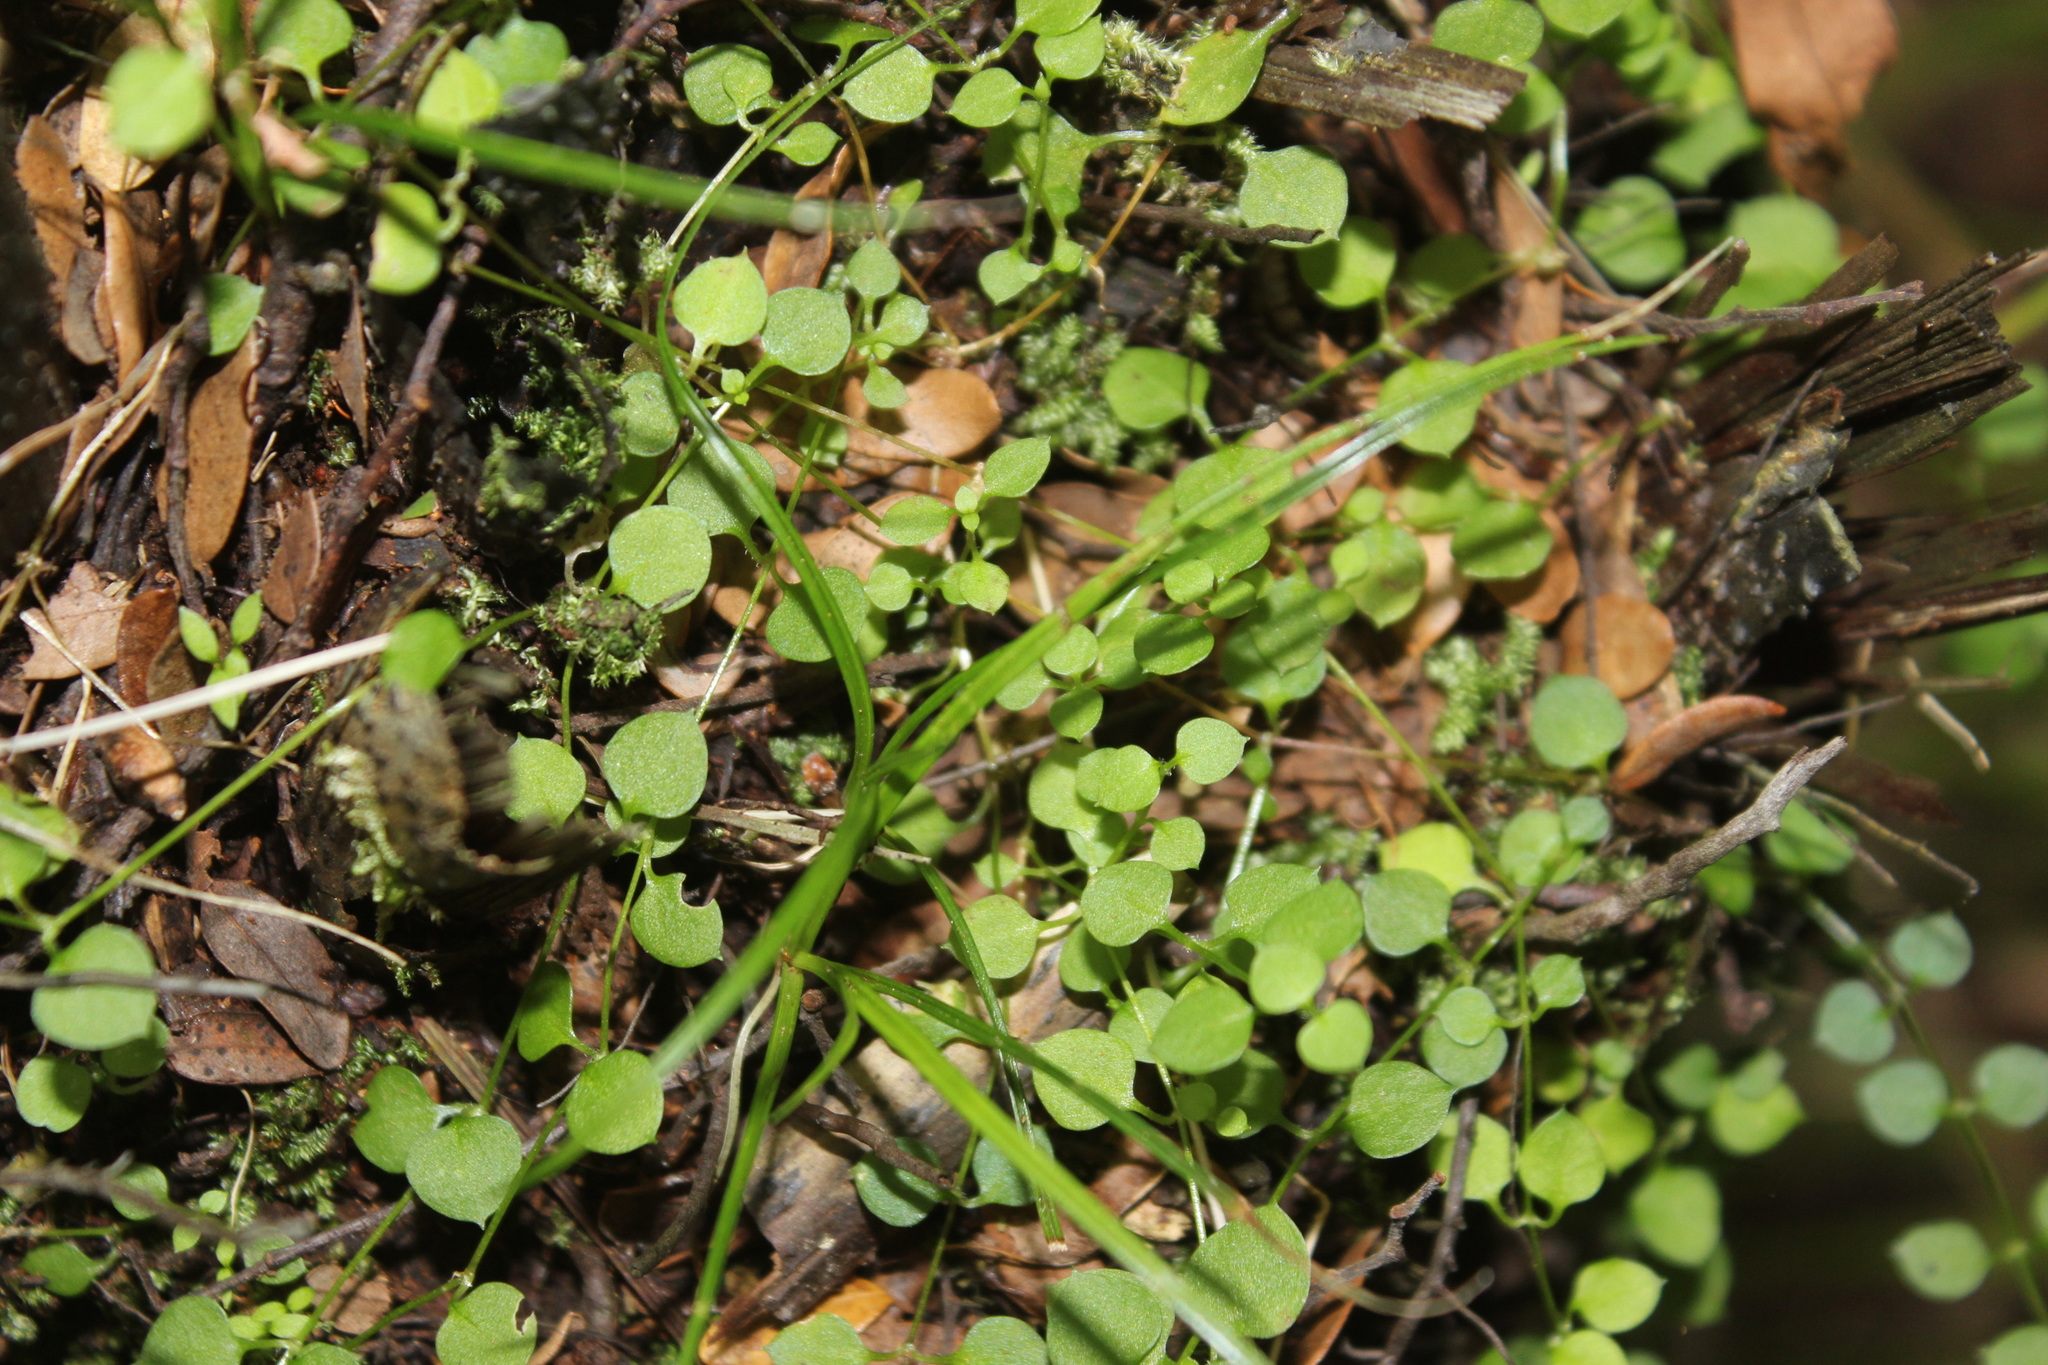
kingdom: Plantae
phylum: Tracheophyta
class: Magnoliopsida
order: Caryophyllales
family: Caryophyllaceae
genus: Stellaria
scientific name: Stellaria parviflora
